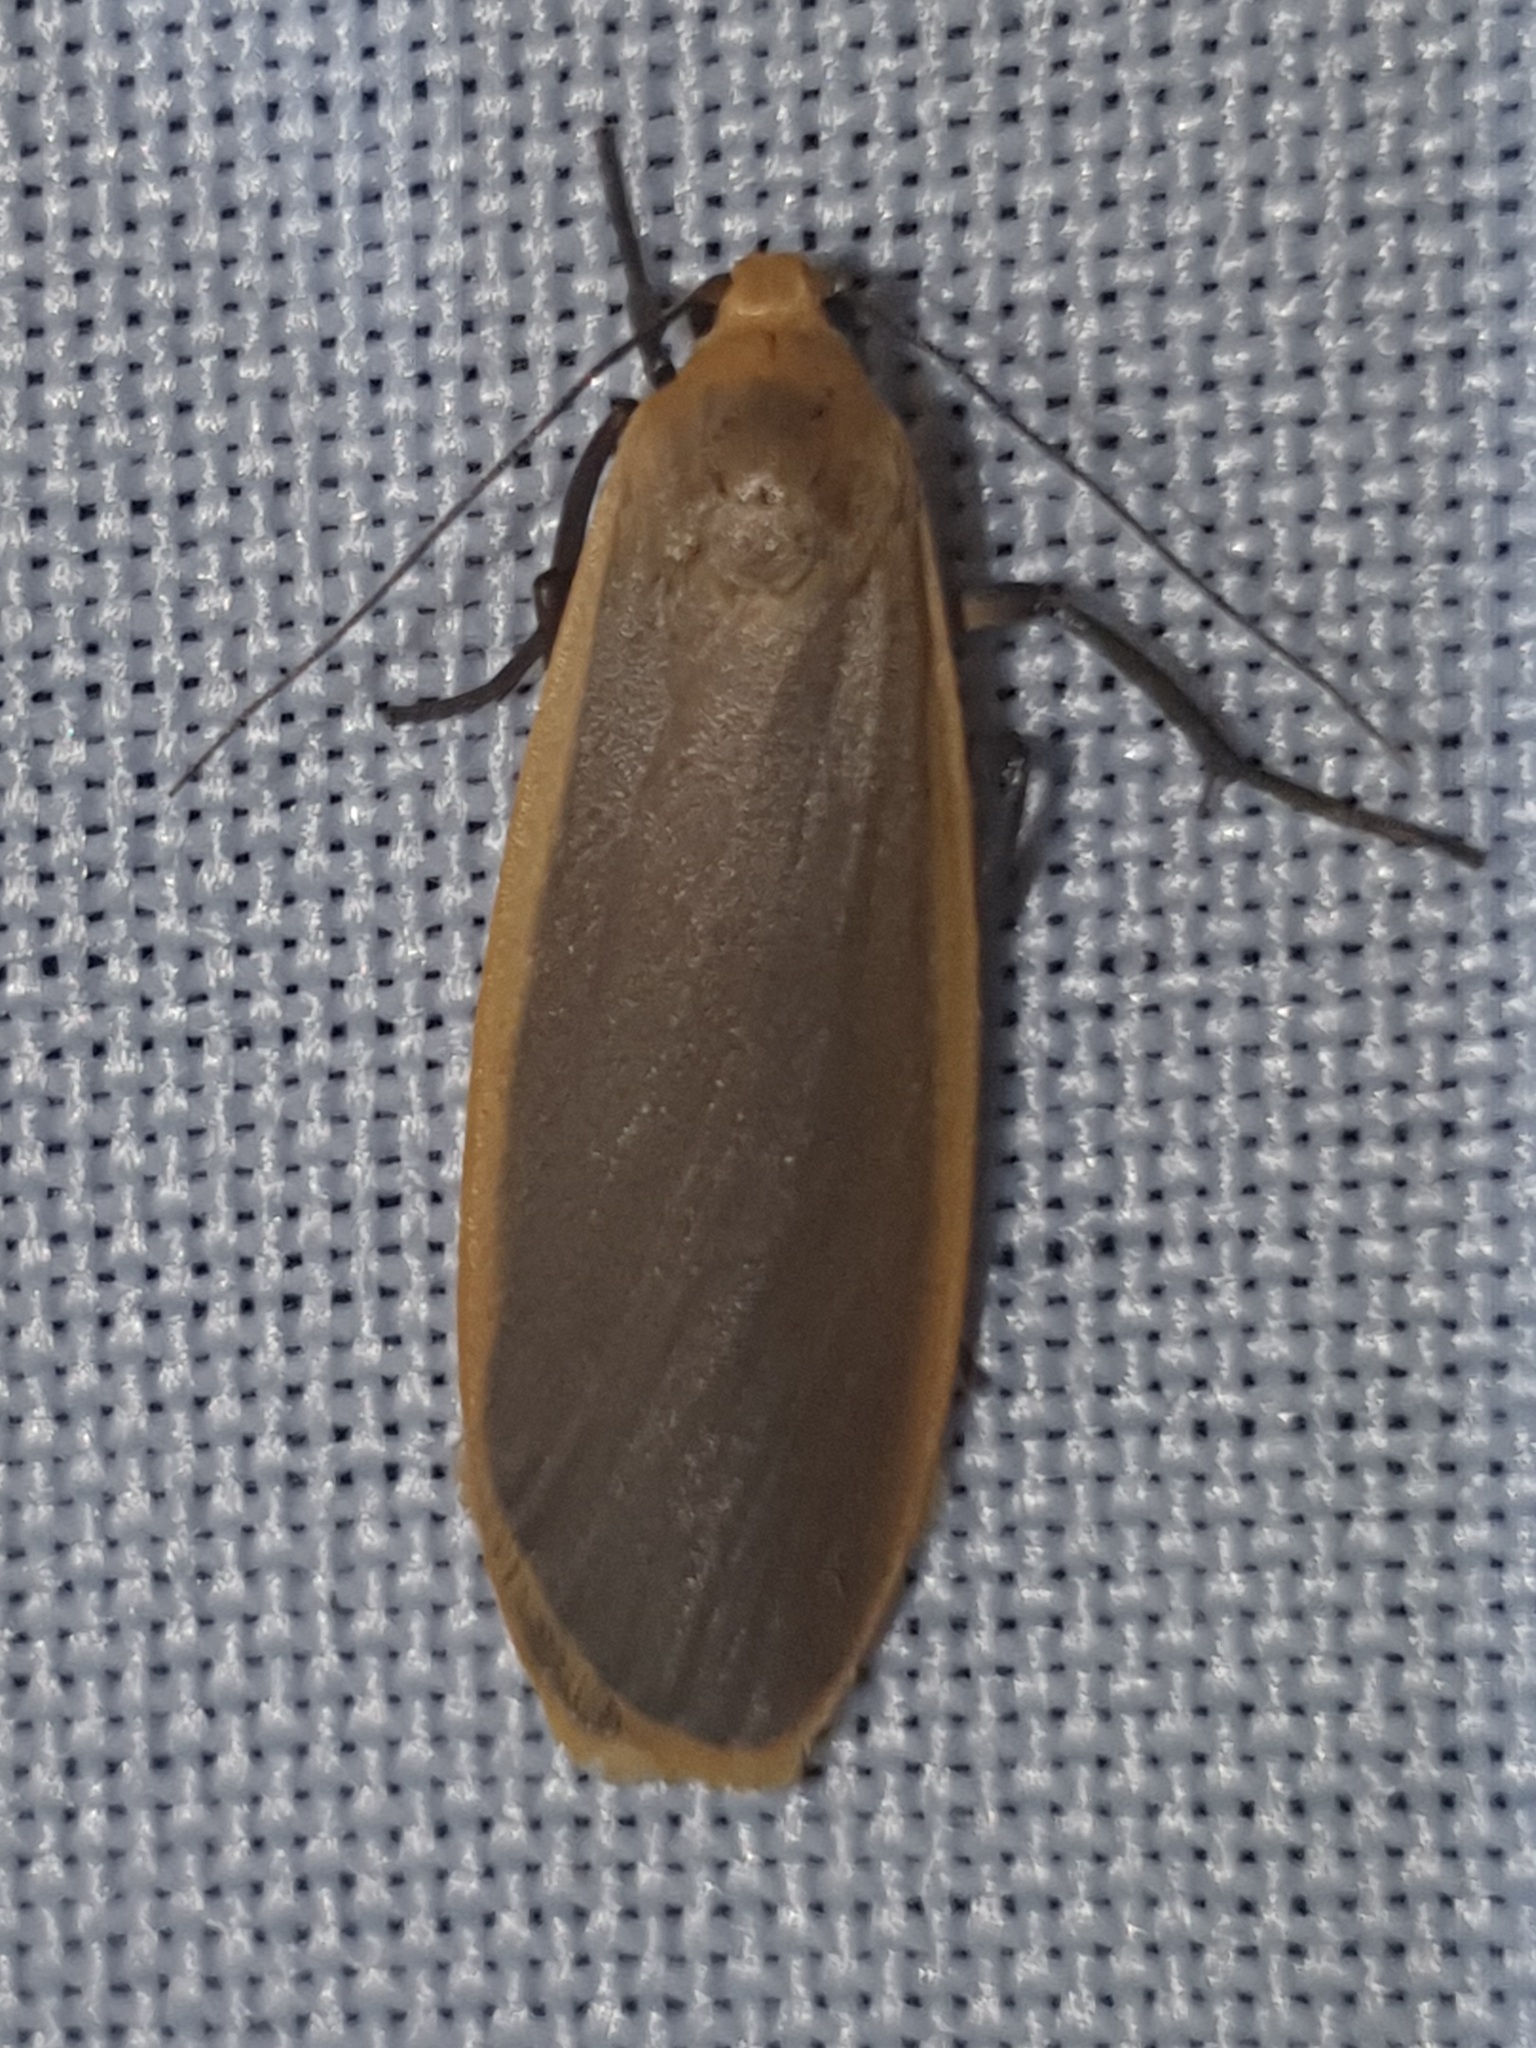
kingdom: Animalia
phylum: Arthropoda
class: Insecta
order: Lepidoptera
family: Erebidae
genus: Katha
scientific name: Katha depressa
